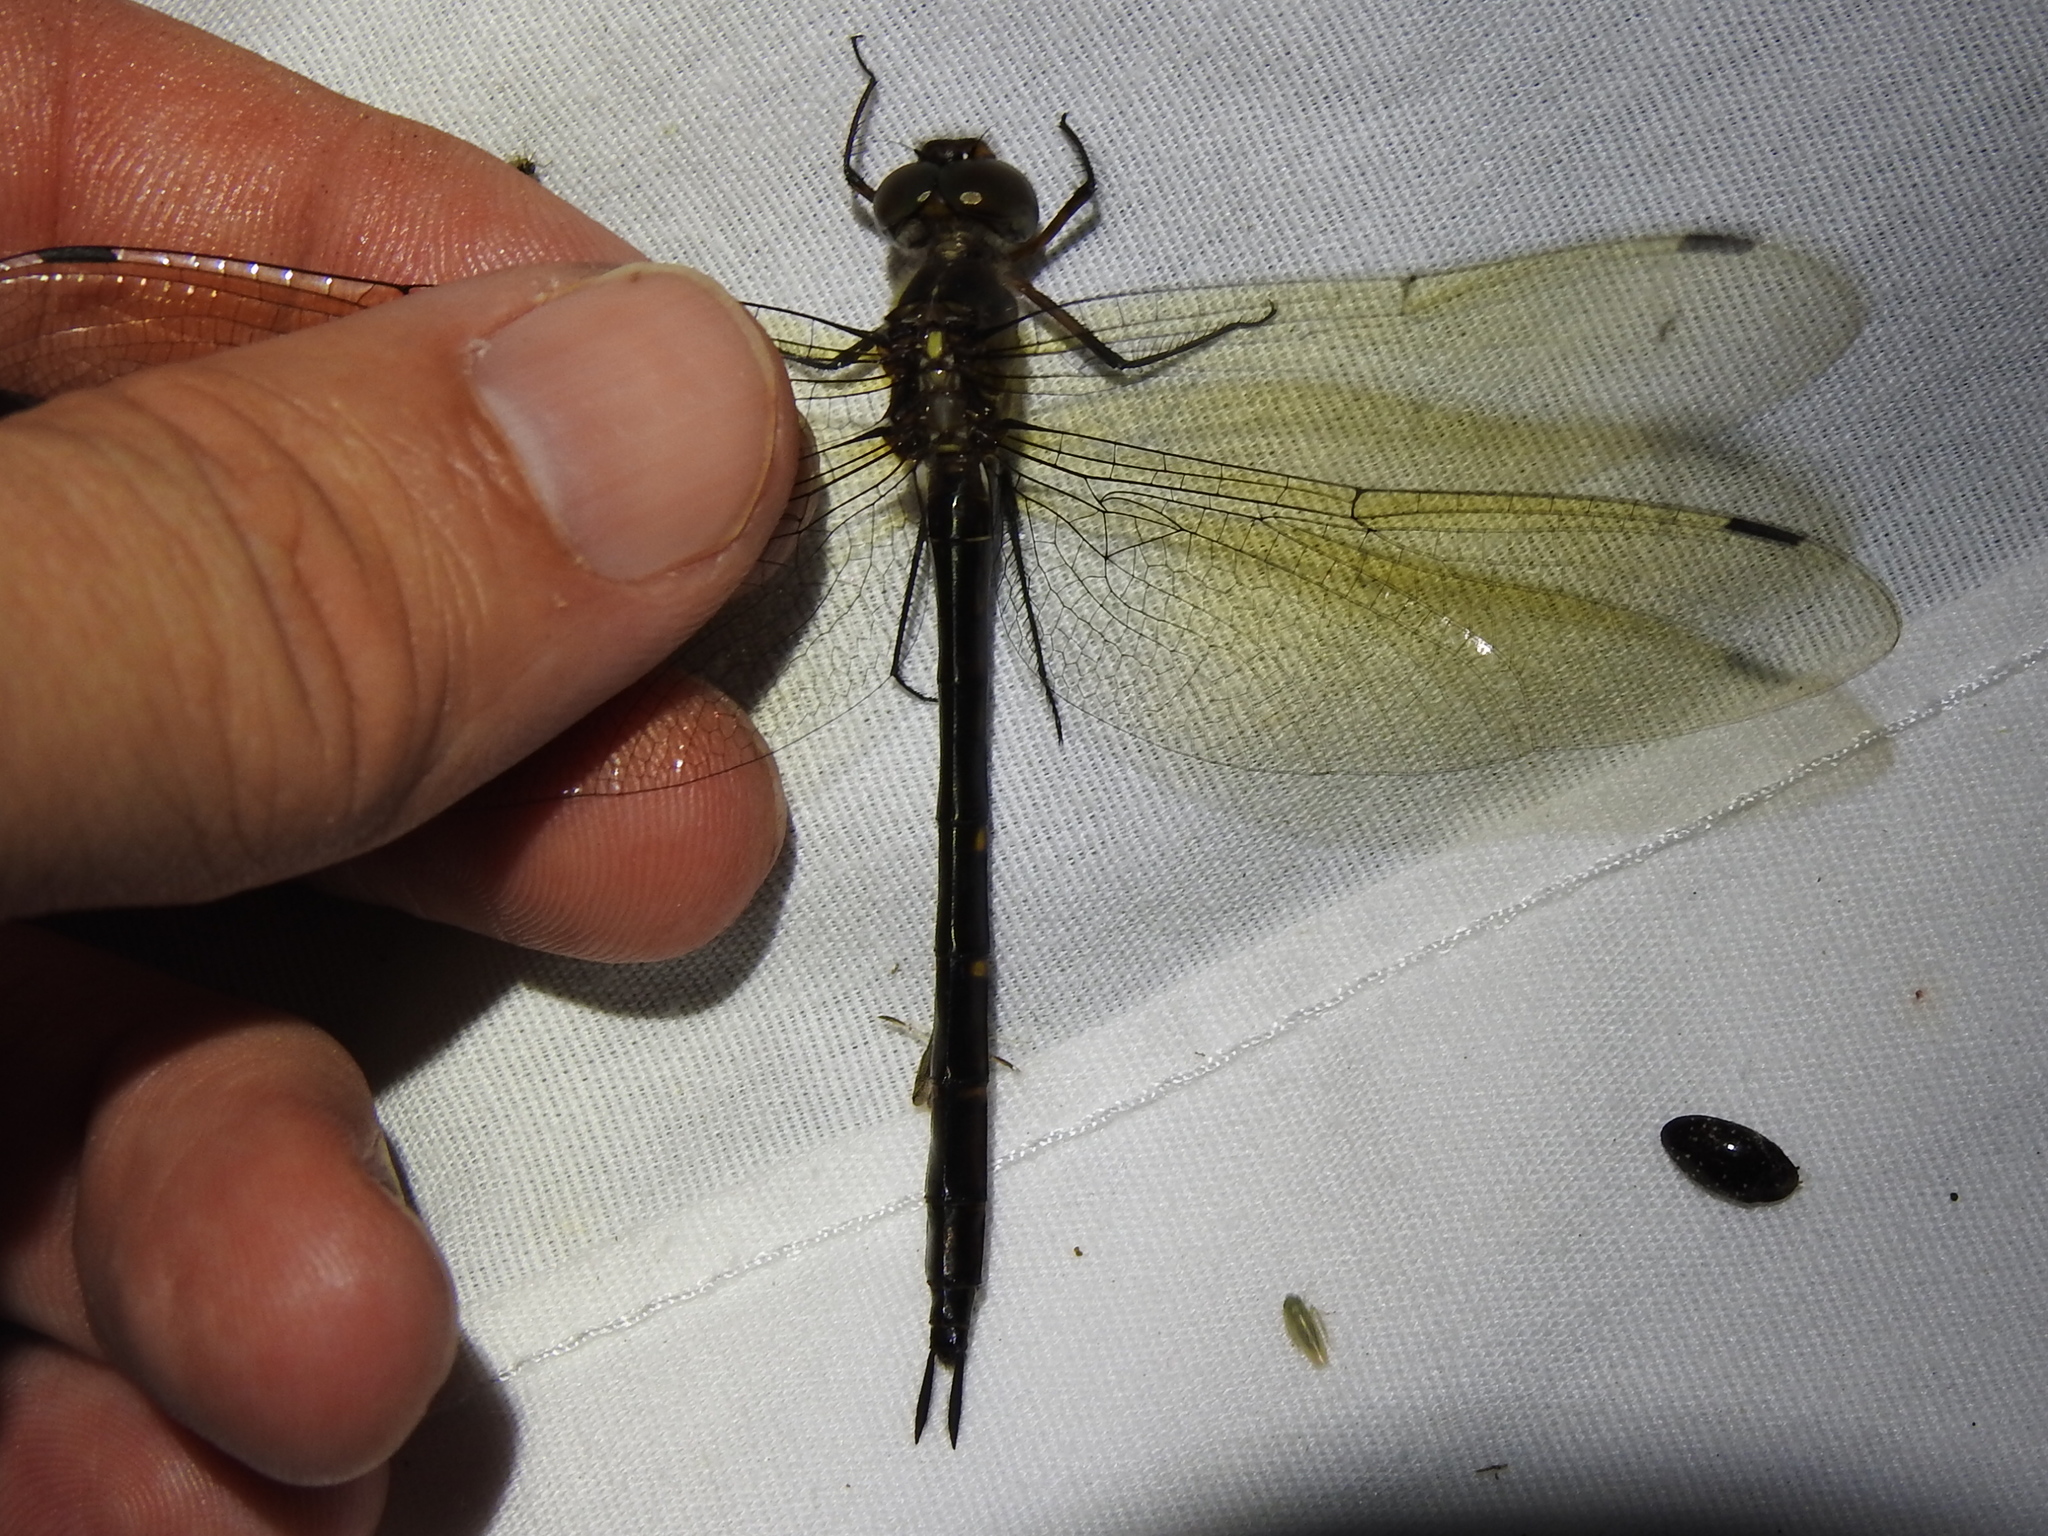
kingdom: Animalia
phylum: Arthropoda
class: Insecta
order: Odonata
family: Corduliidae
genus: Somatochlora
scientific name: Somatochlora linearis
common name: Mocha emerald
